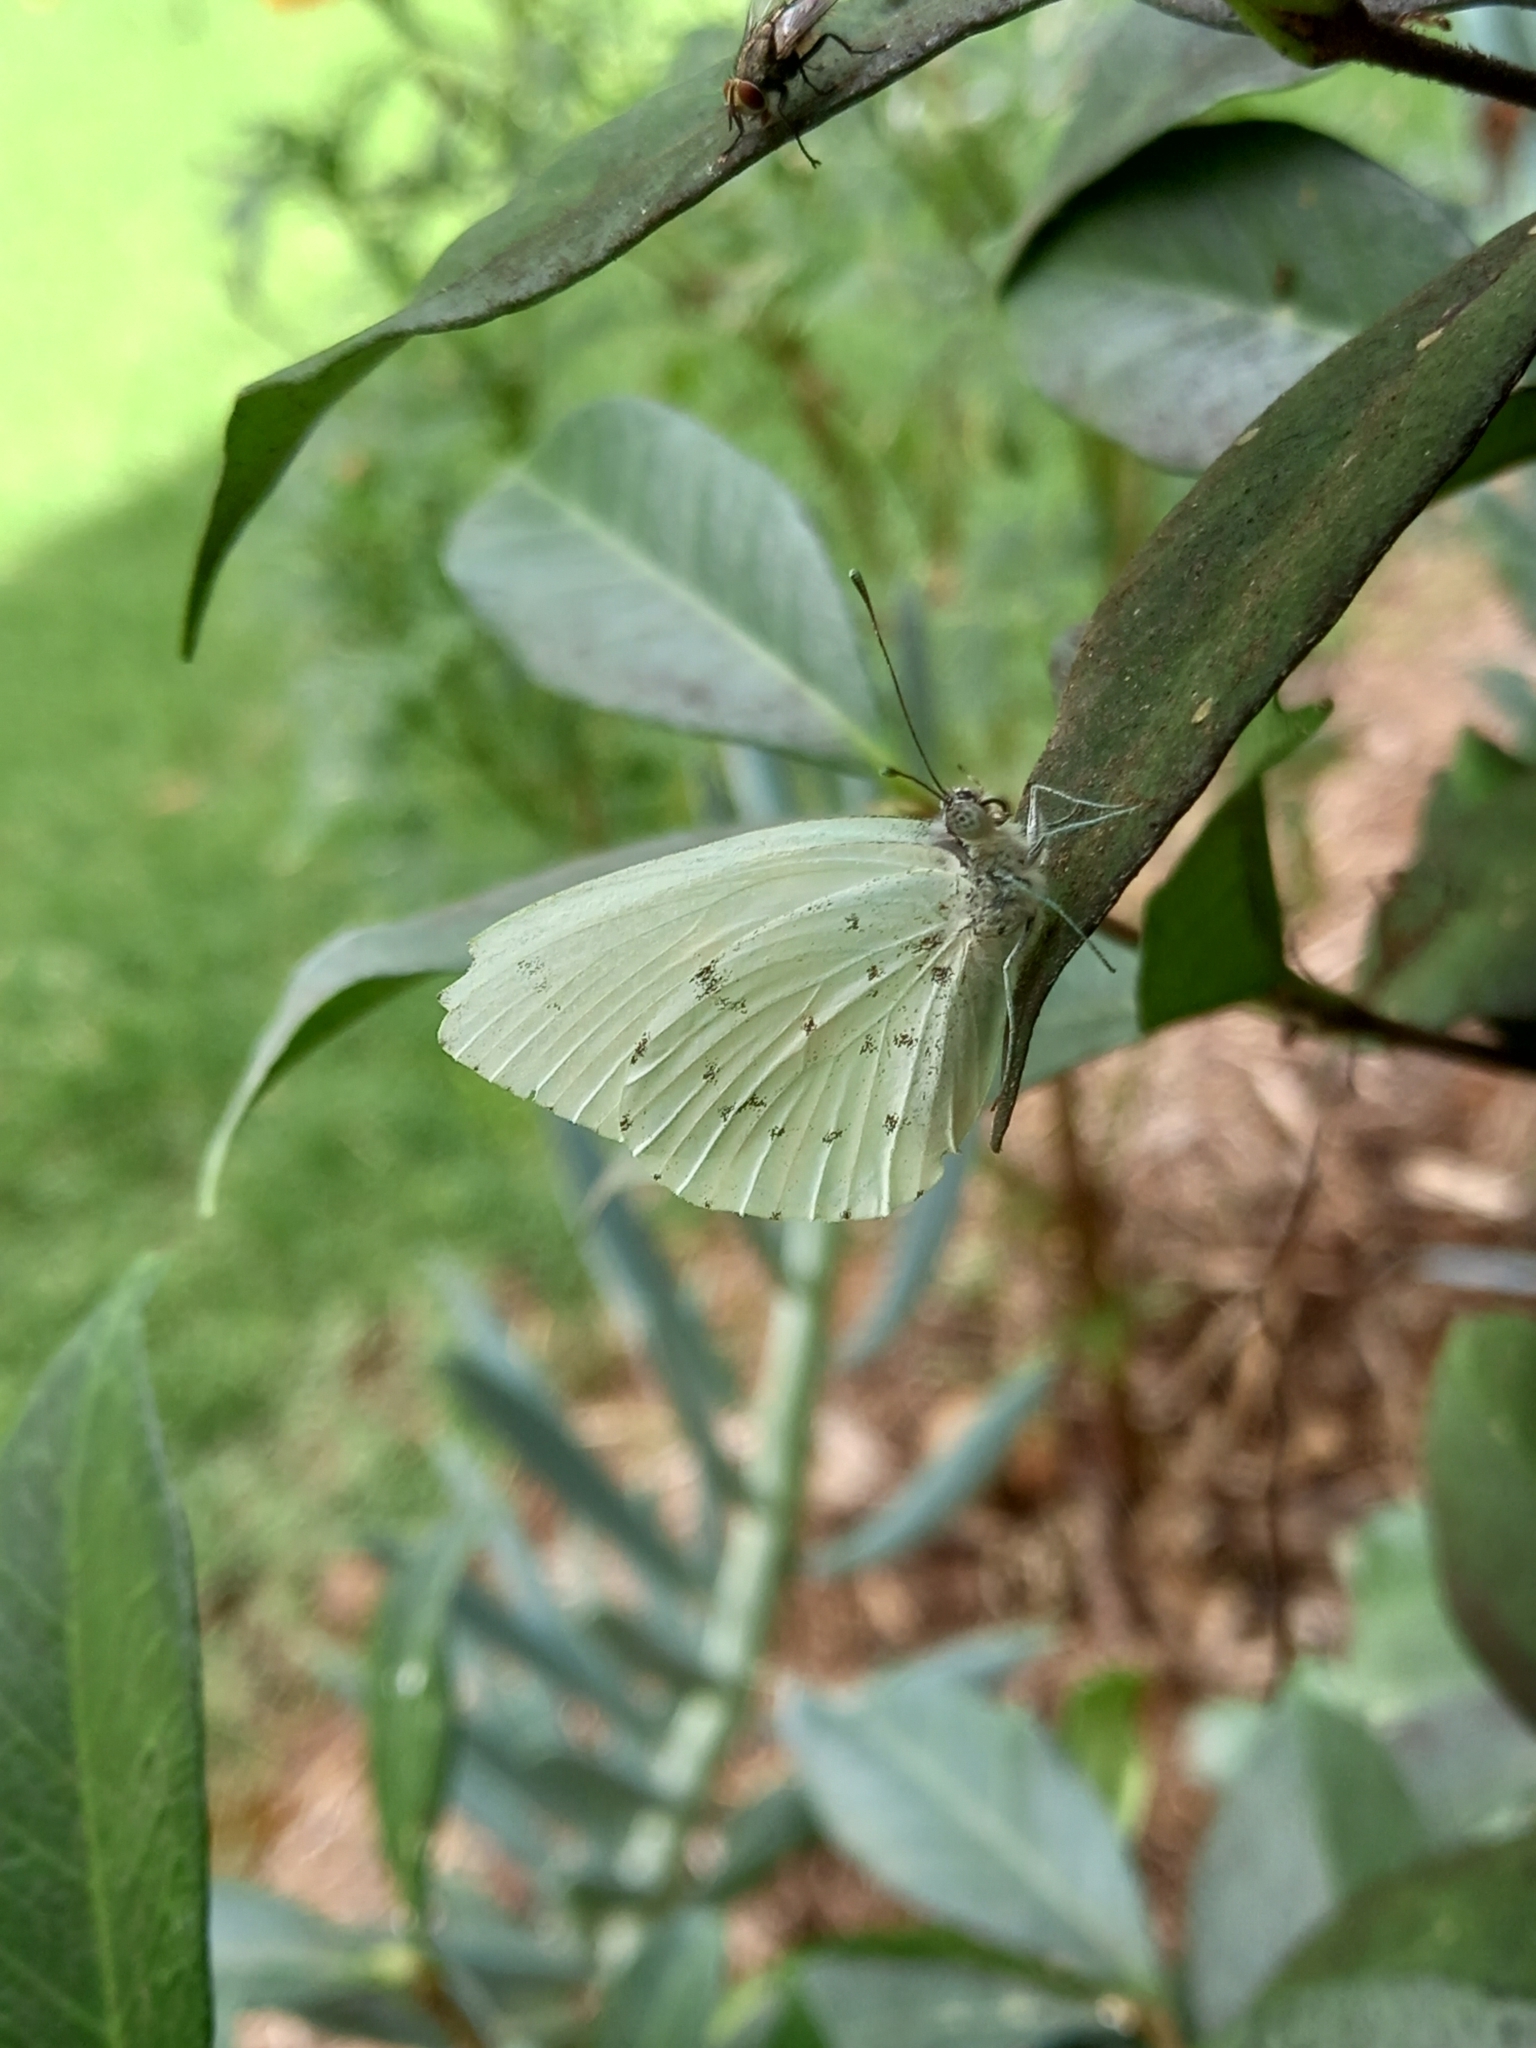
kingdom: Animalia
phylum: Arthropoda
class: Insecta
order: Lepidoptera
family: Pieridae
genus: Dixeia
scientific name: Dixeia charina
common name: African small white
